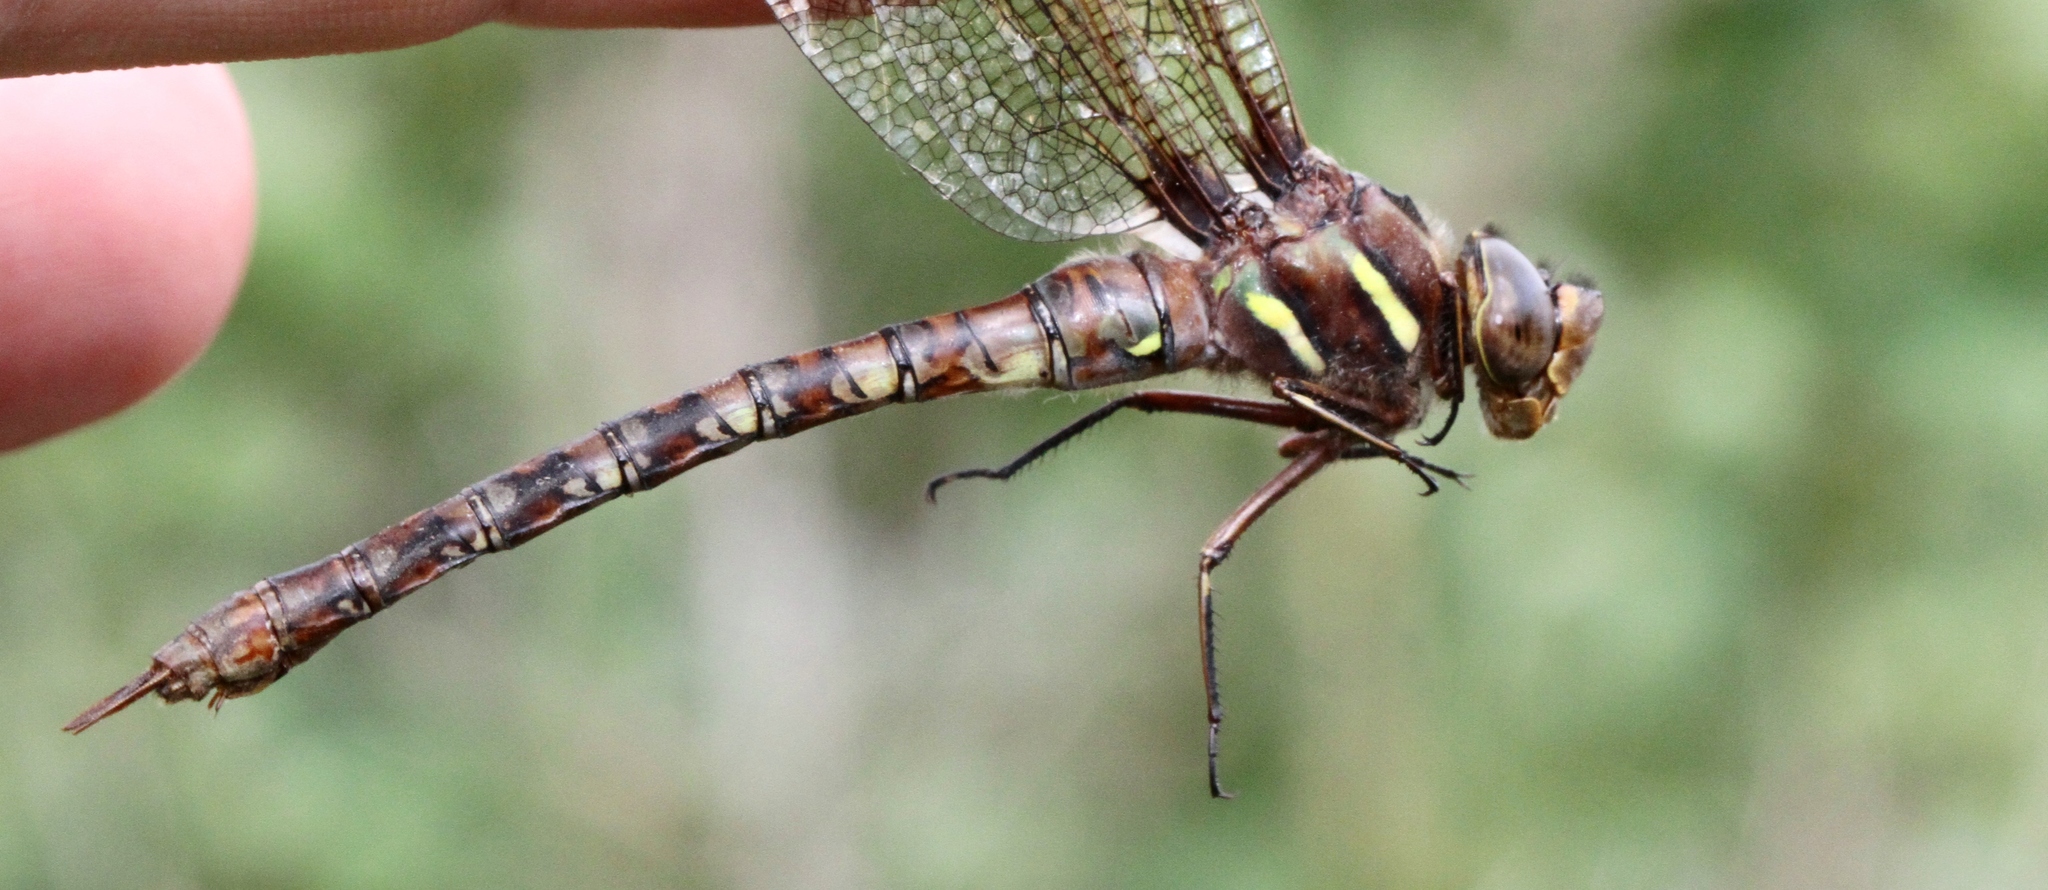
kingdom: Animalia
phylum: Arthropoda
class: Insecta
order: Odonata
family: Aeshnidae
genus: Basiaeschna
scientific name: Basiaeschna janata
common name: Springtime darner
